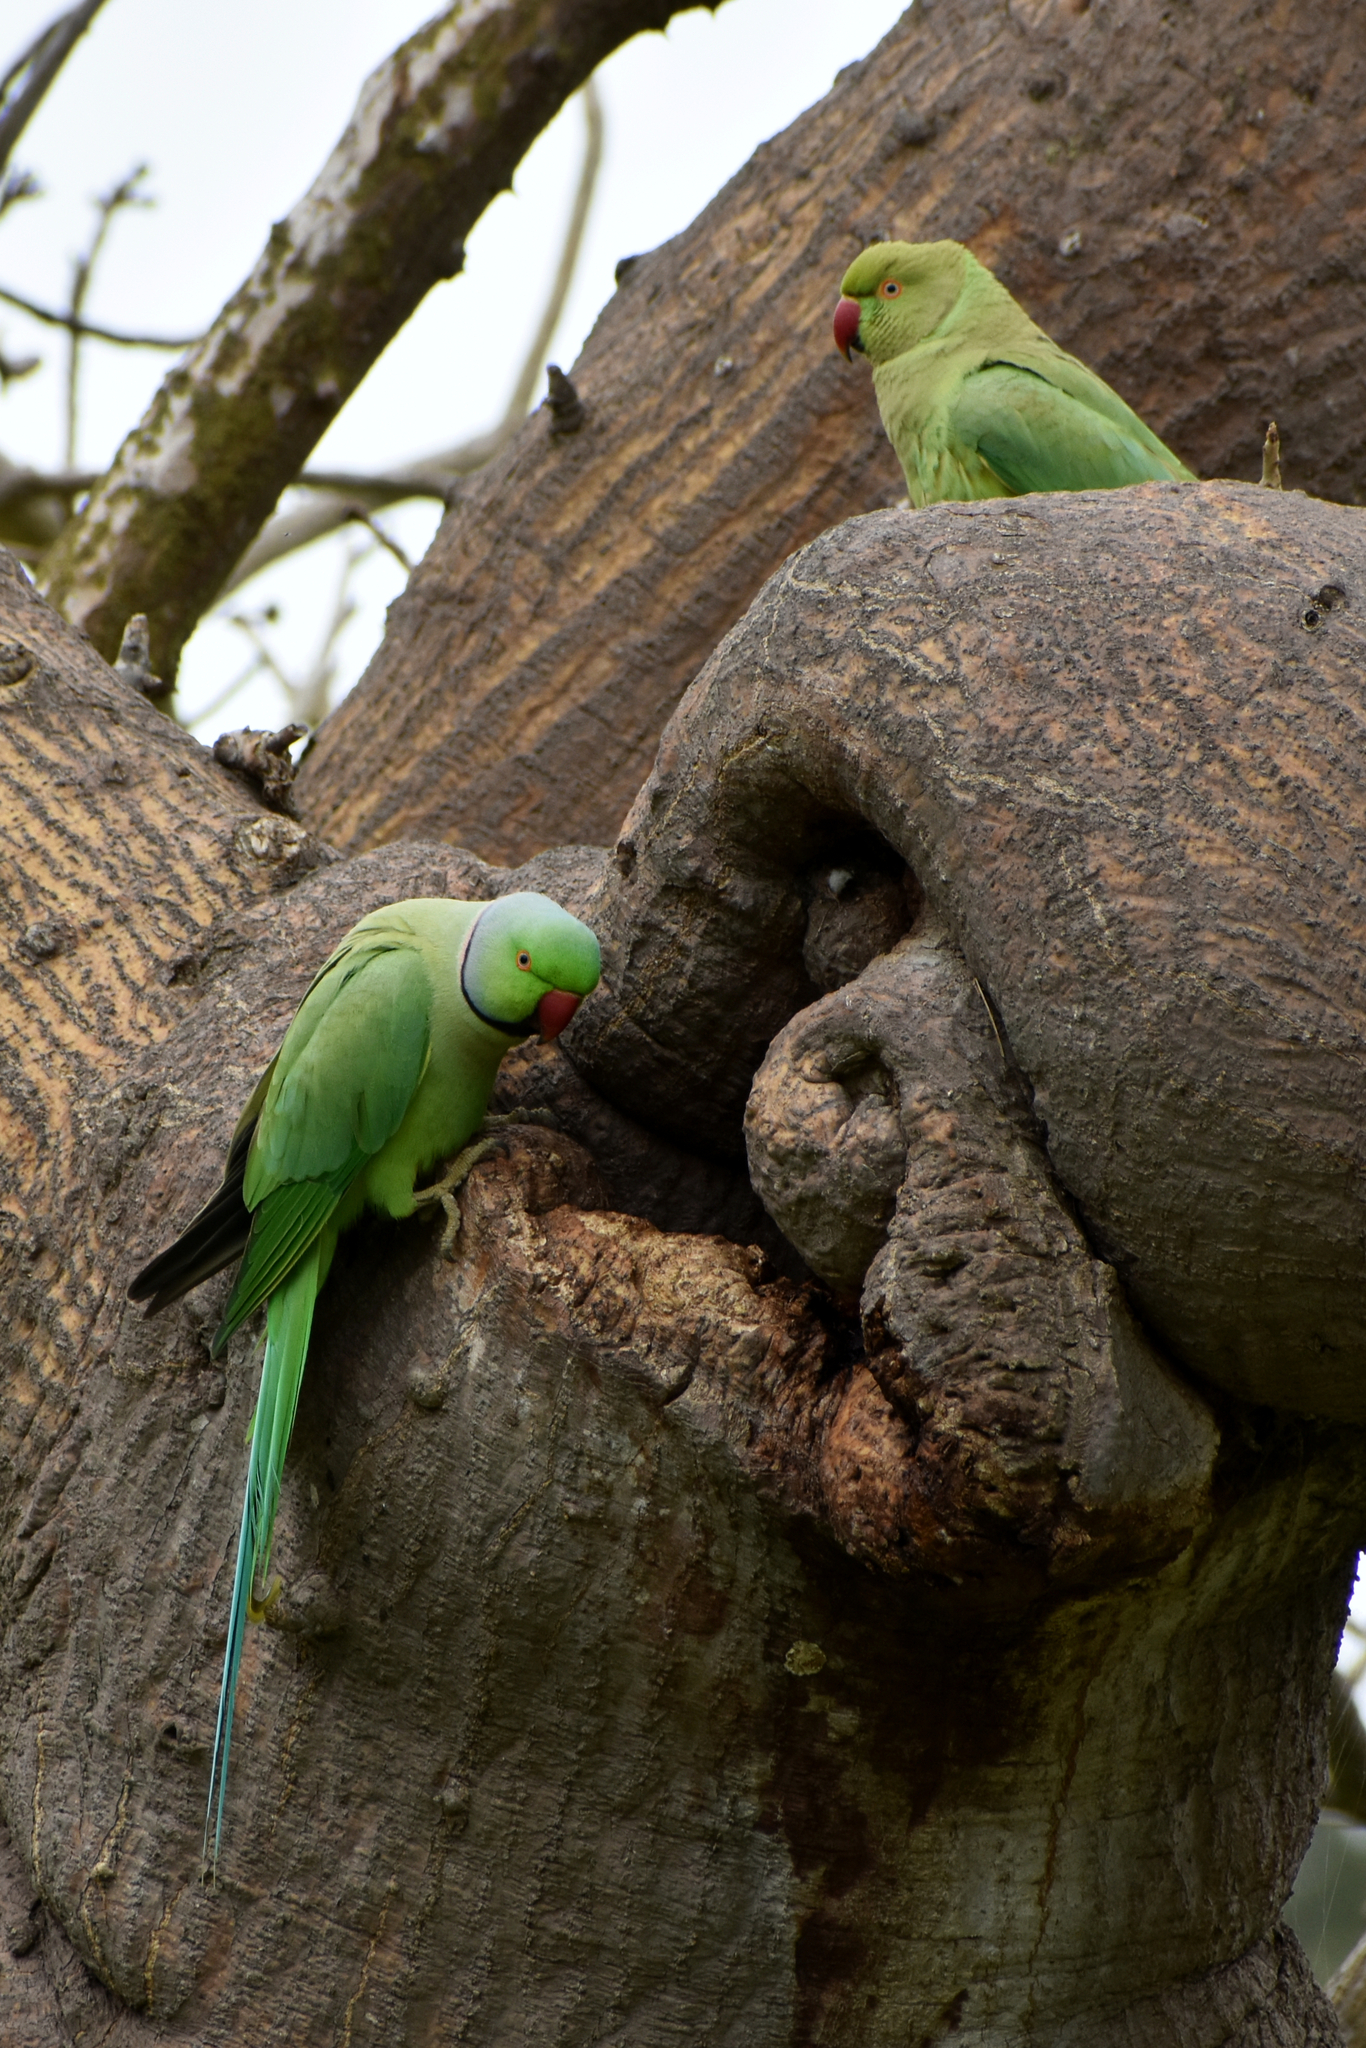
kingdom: Animalia
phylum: Chordata
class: Aves
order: Psittaciformes
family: Psittacidae
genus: Psittacula
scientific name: Psittacula krameri
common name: Rose-ringed parakeet
